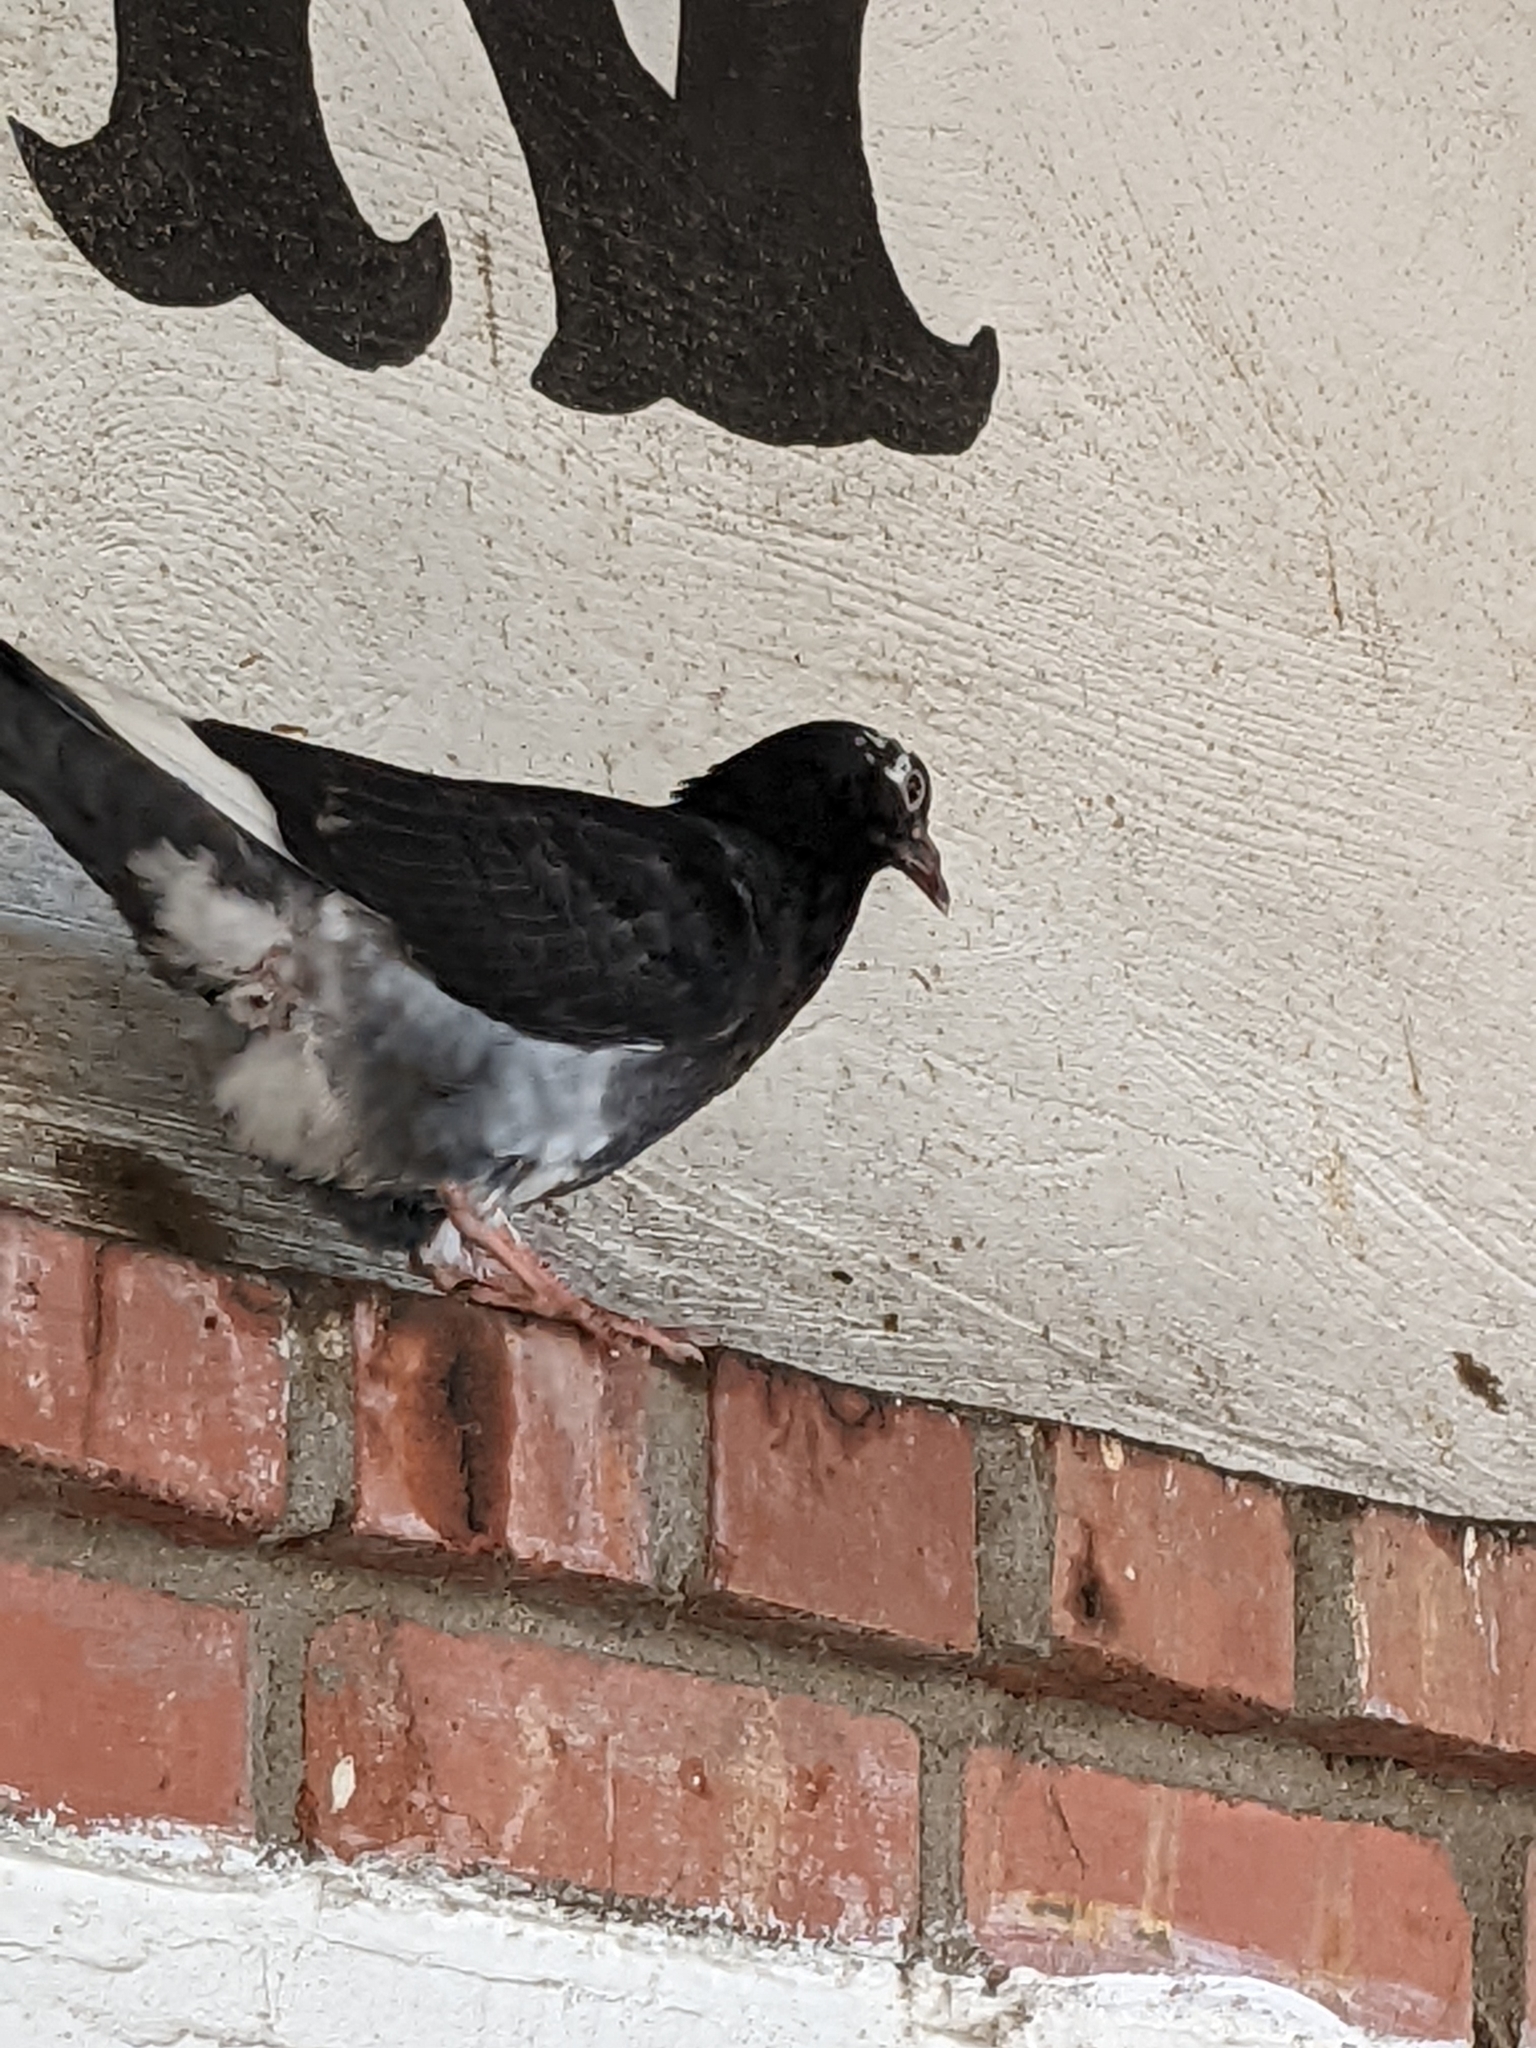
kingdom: Animalia
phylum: Chordata
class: Aves
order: Columbiformes
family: Columbidae
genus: Columba
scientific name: Columba livia
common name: Rock pigeon
